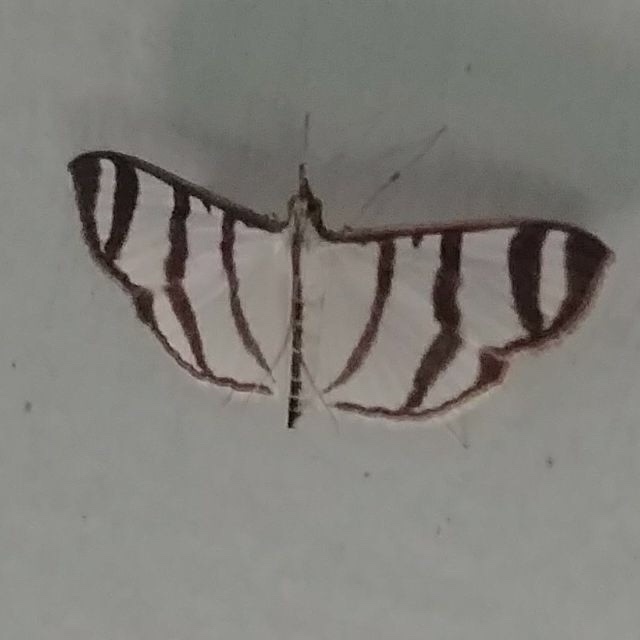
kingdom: Animalia
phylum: Arthropoda
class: Insecta
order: Lepidoptera
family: Crambidae
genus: Zebronia
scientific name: Zebronia phenice
